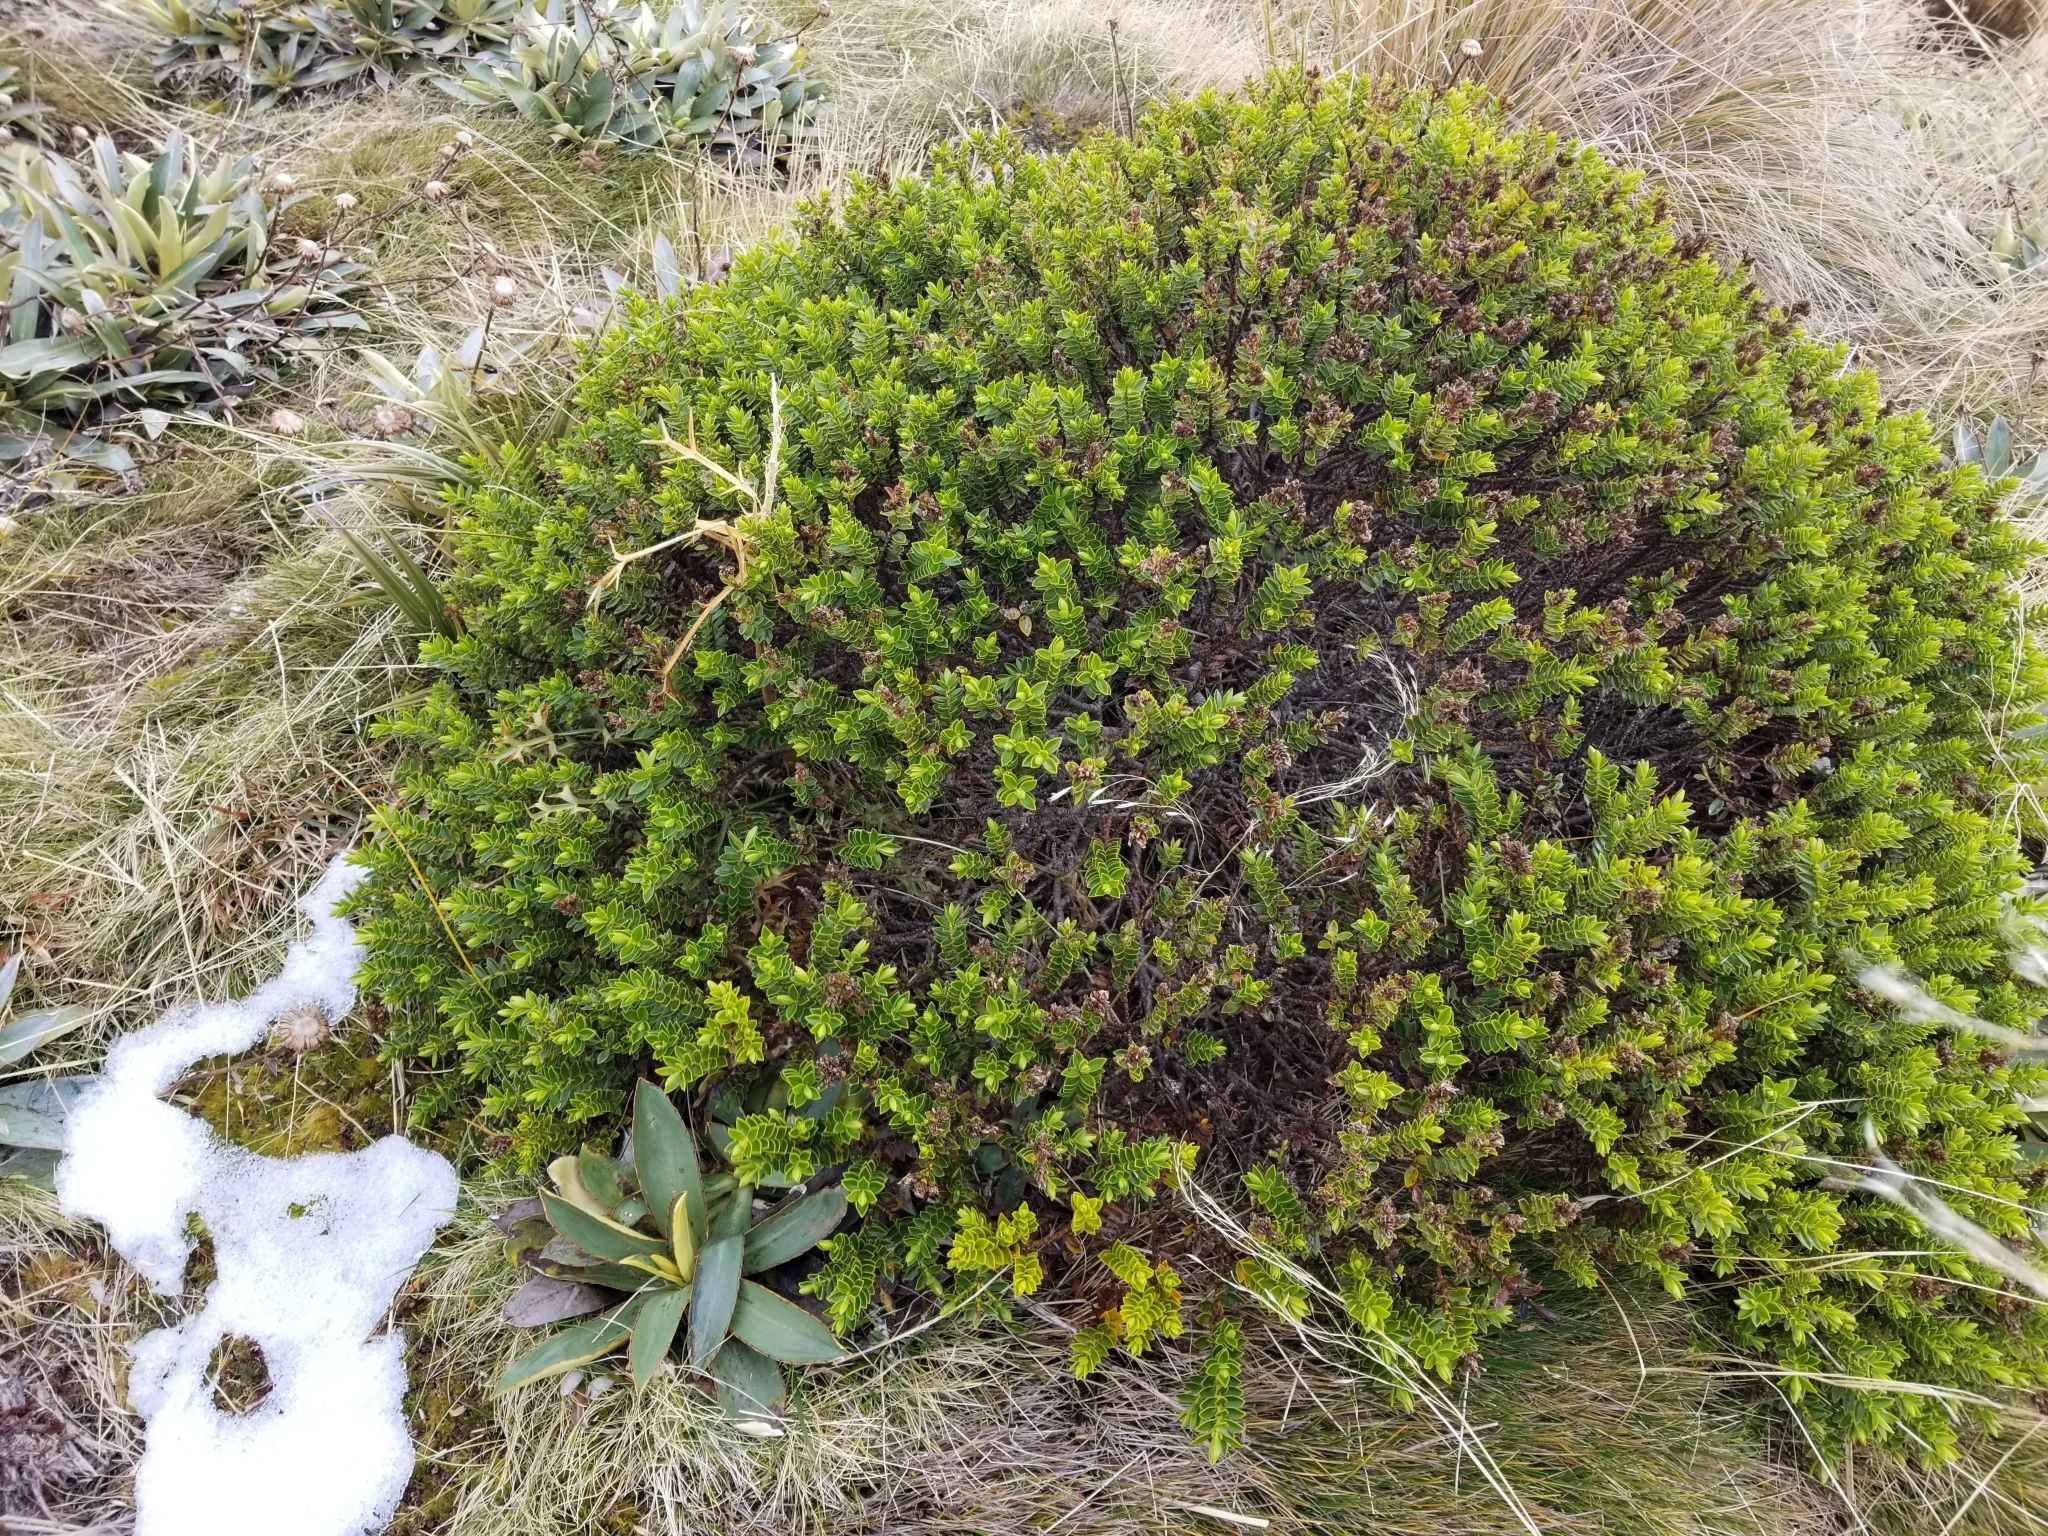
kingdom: Plantae
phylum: Tracheophyta
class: Magnoliopsida
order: Lamiales
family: Plantaginaceae
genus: Veronica
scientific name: Veronica odora
